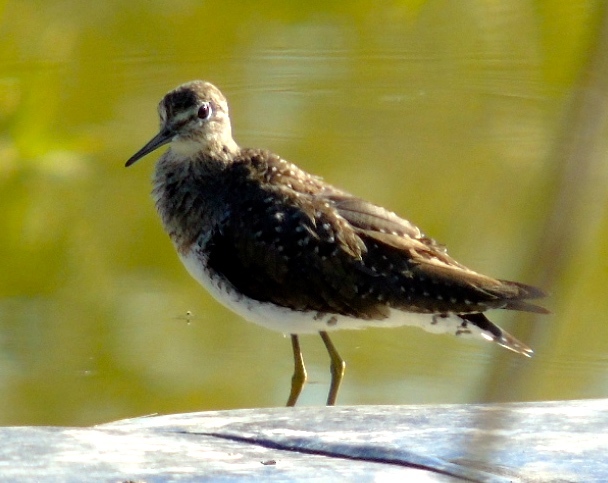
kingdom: Animalia
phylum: Chordata
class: Aves
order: Charadriiformes
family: Scolopacidae
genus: Tringa
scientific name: Tringa solitaria
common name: Solitary sandpiper
